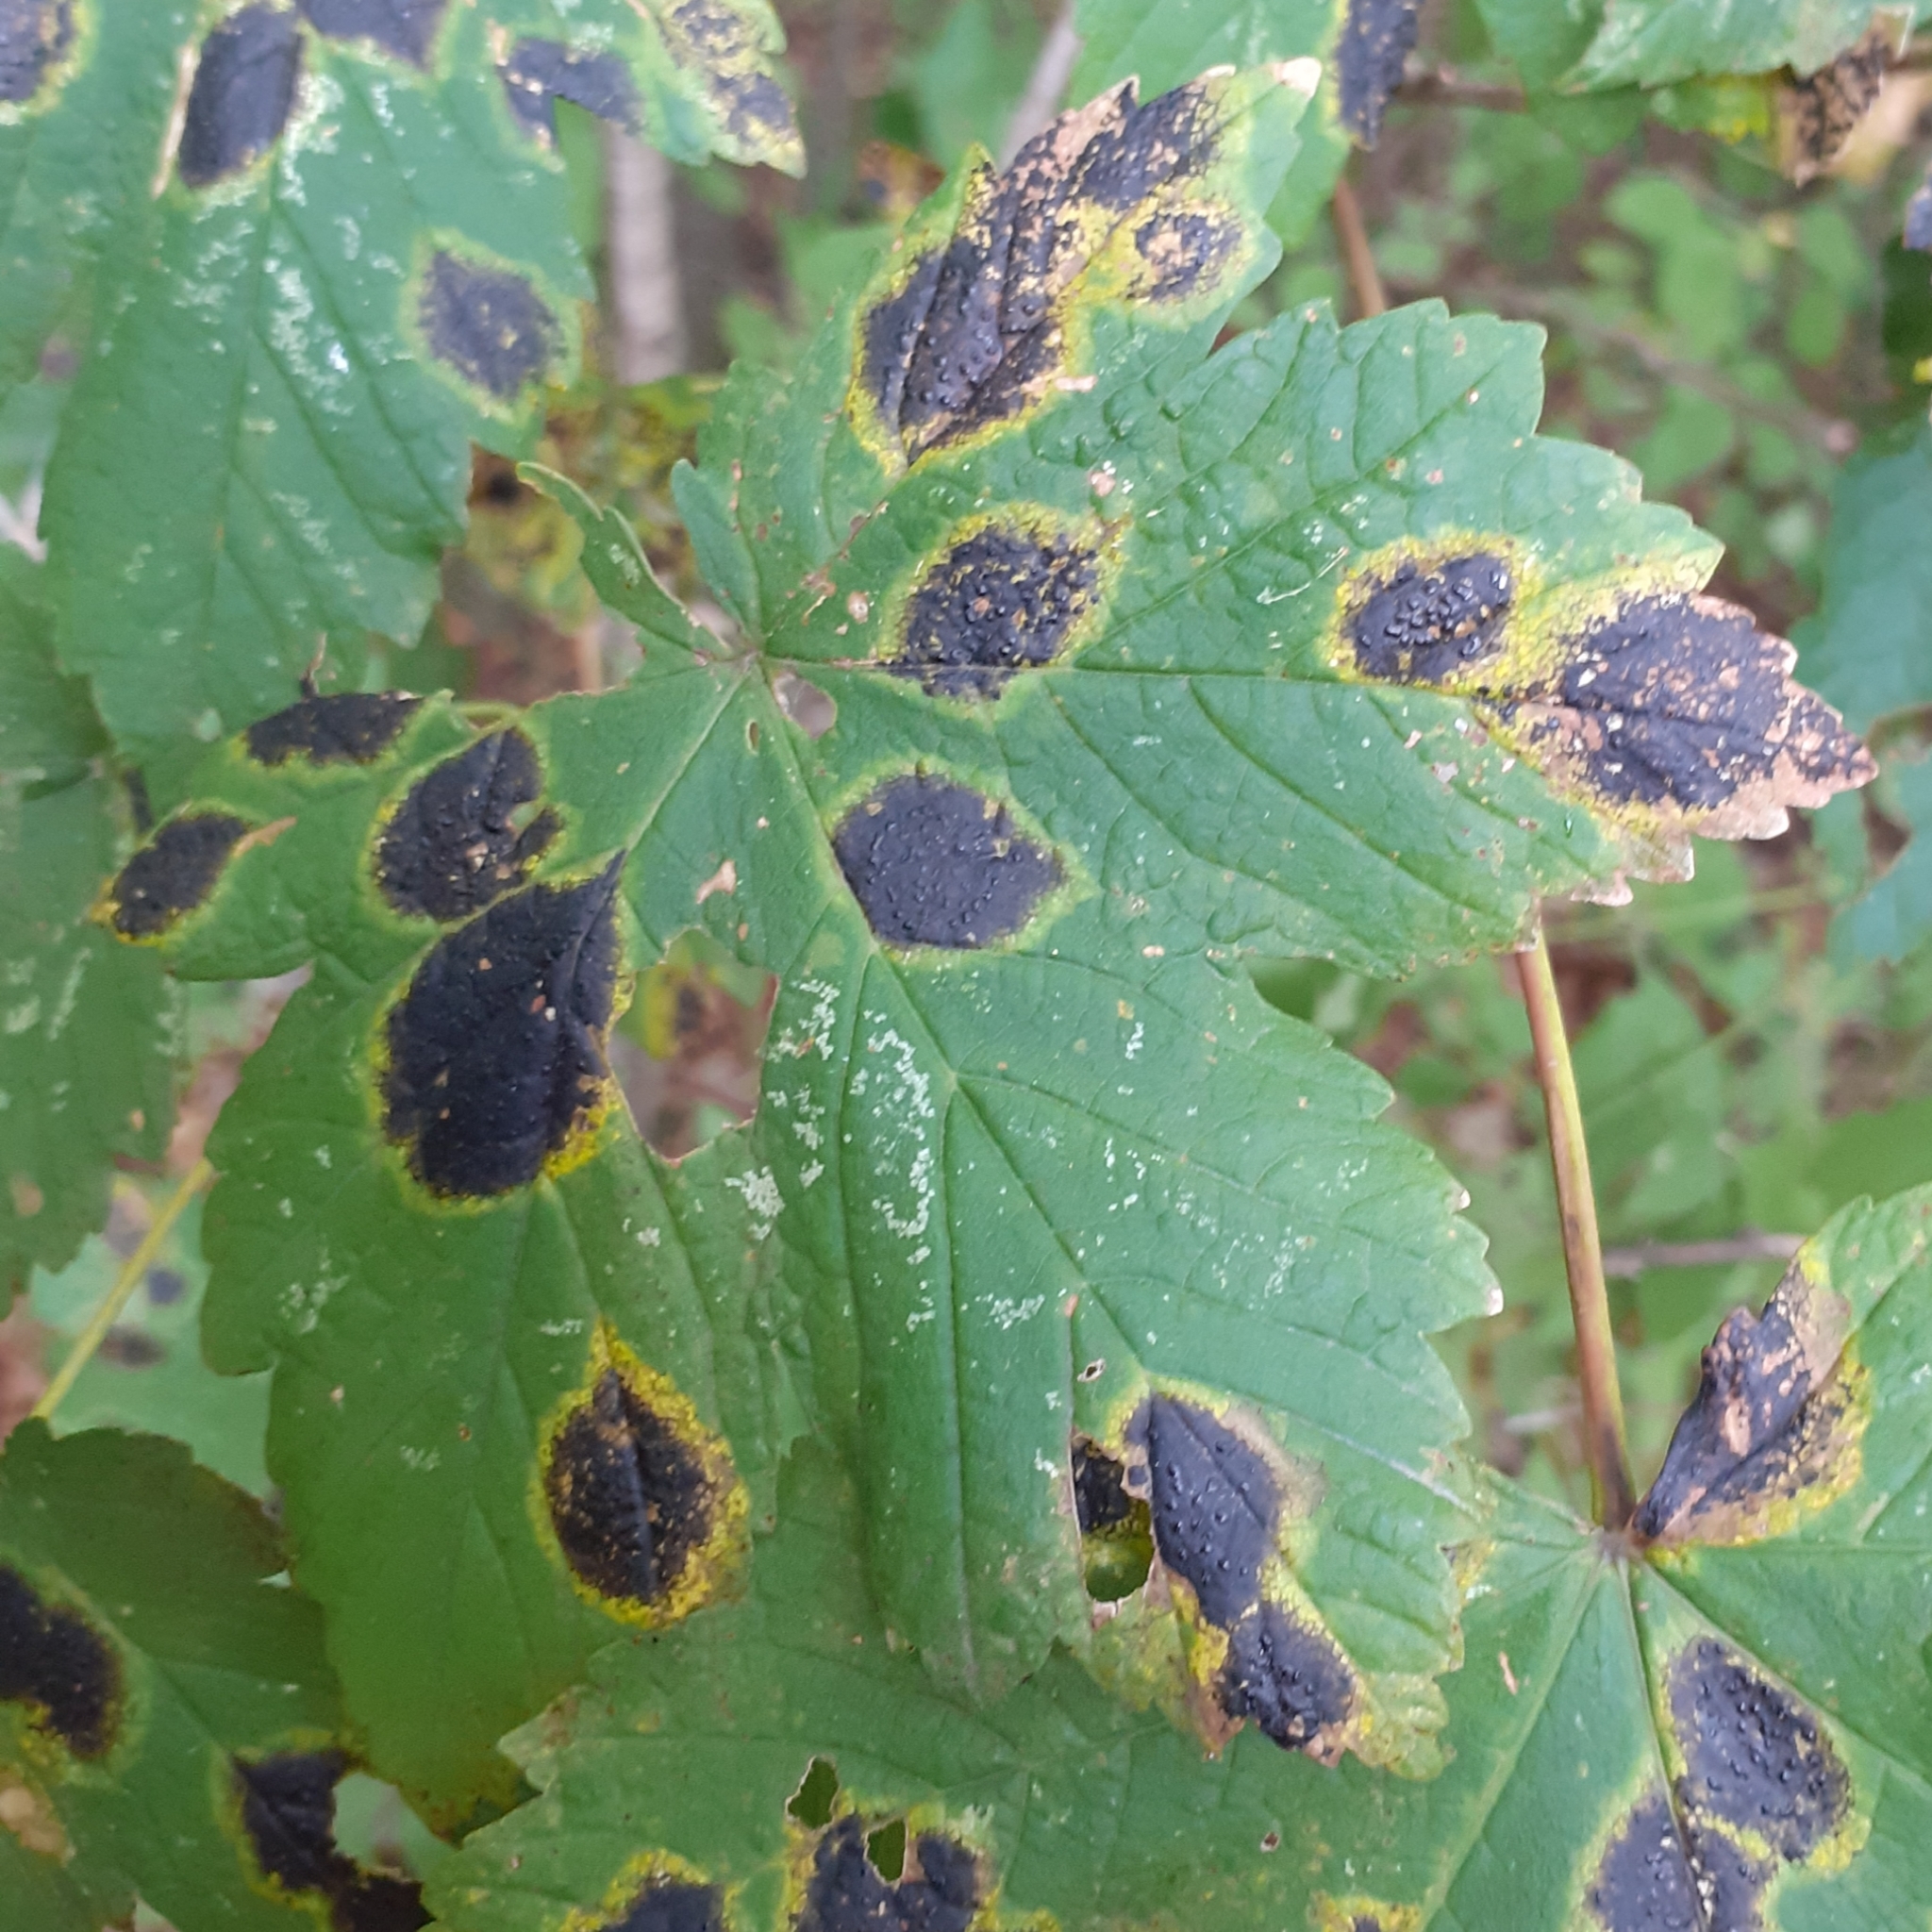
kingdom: Fungi
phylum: Ascomycota
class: Leotiomycetes
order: Rhytismatales
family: Rhytismataceae
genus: Rhytisma
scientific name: Rhytisma acerinum
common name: European tar spot
